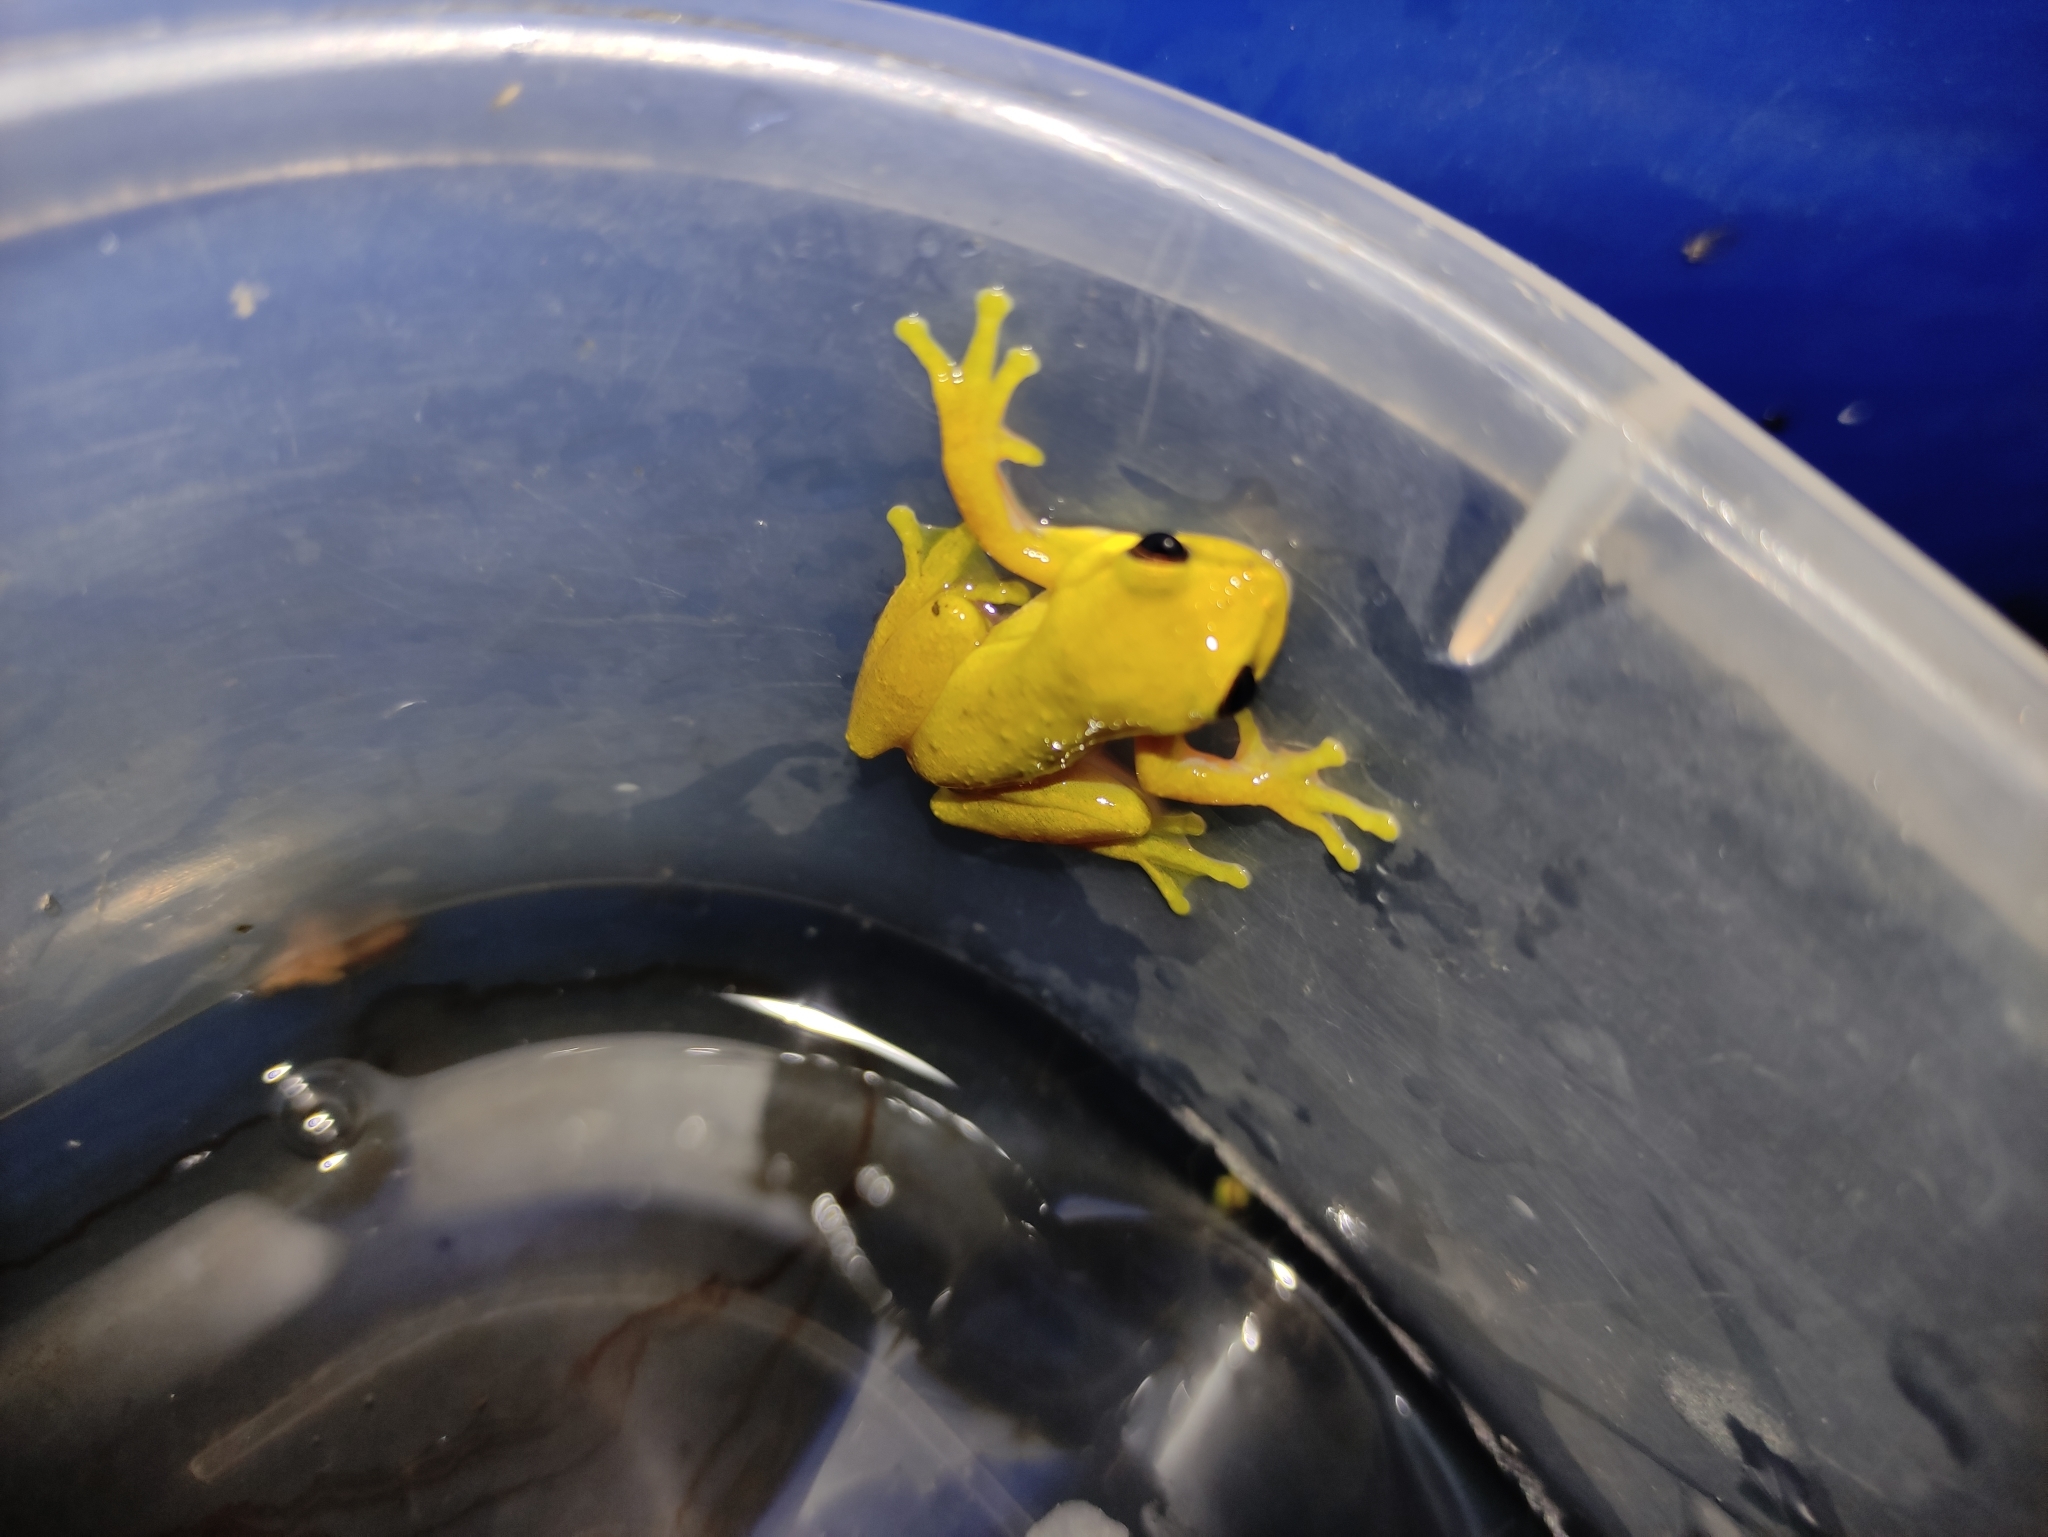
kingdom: Animalia
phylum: Chordata
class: Amphibia
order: Anura
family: Hylidae
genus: Dendropsophus
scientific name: Dendropsophus columbianus
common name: Boettger's colombian treefrog
